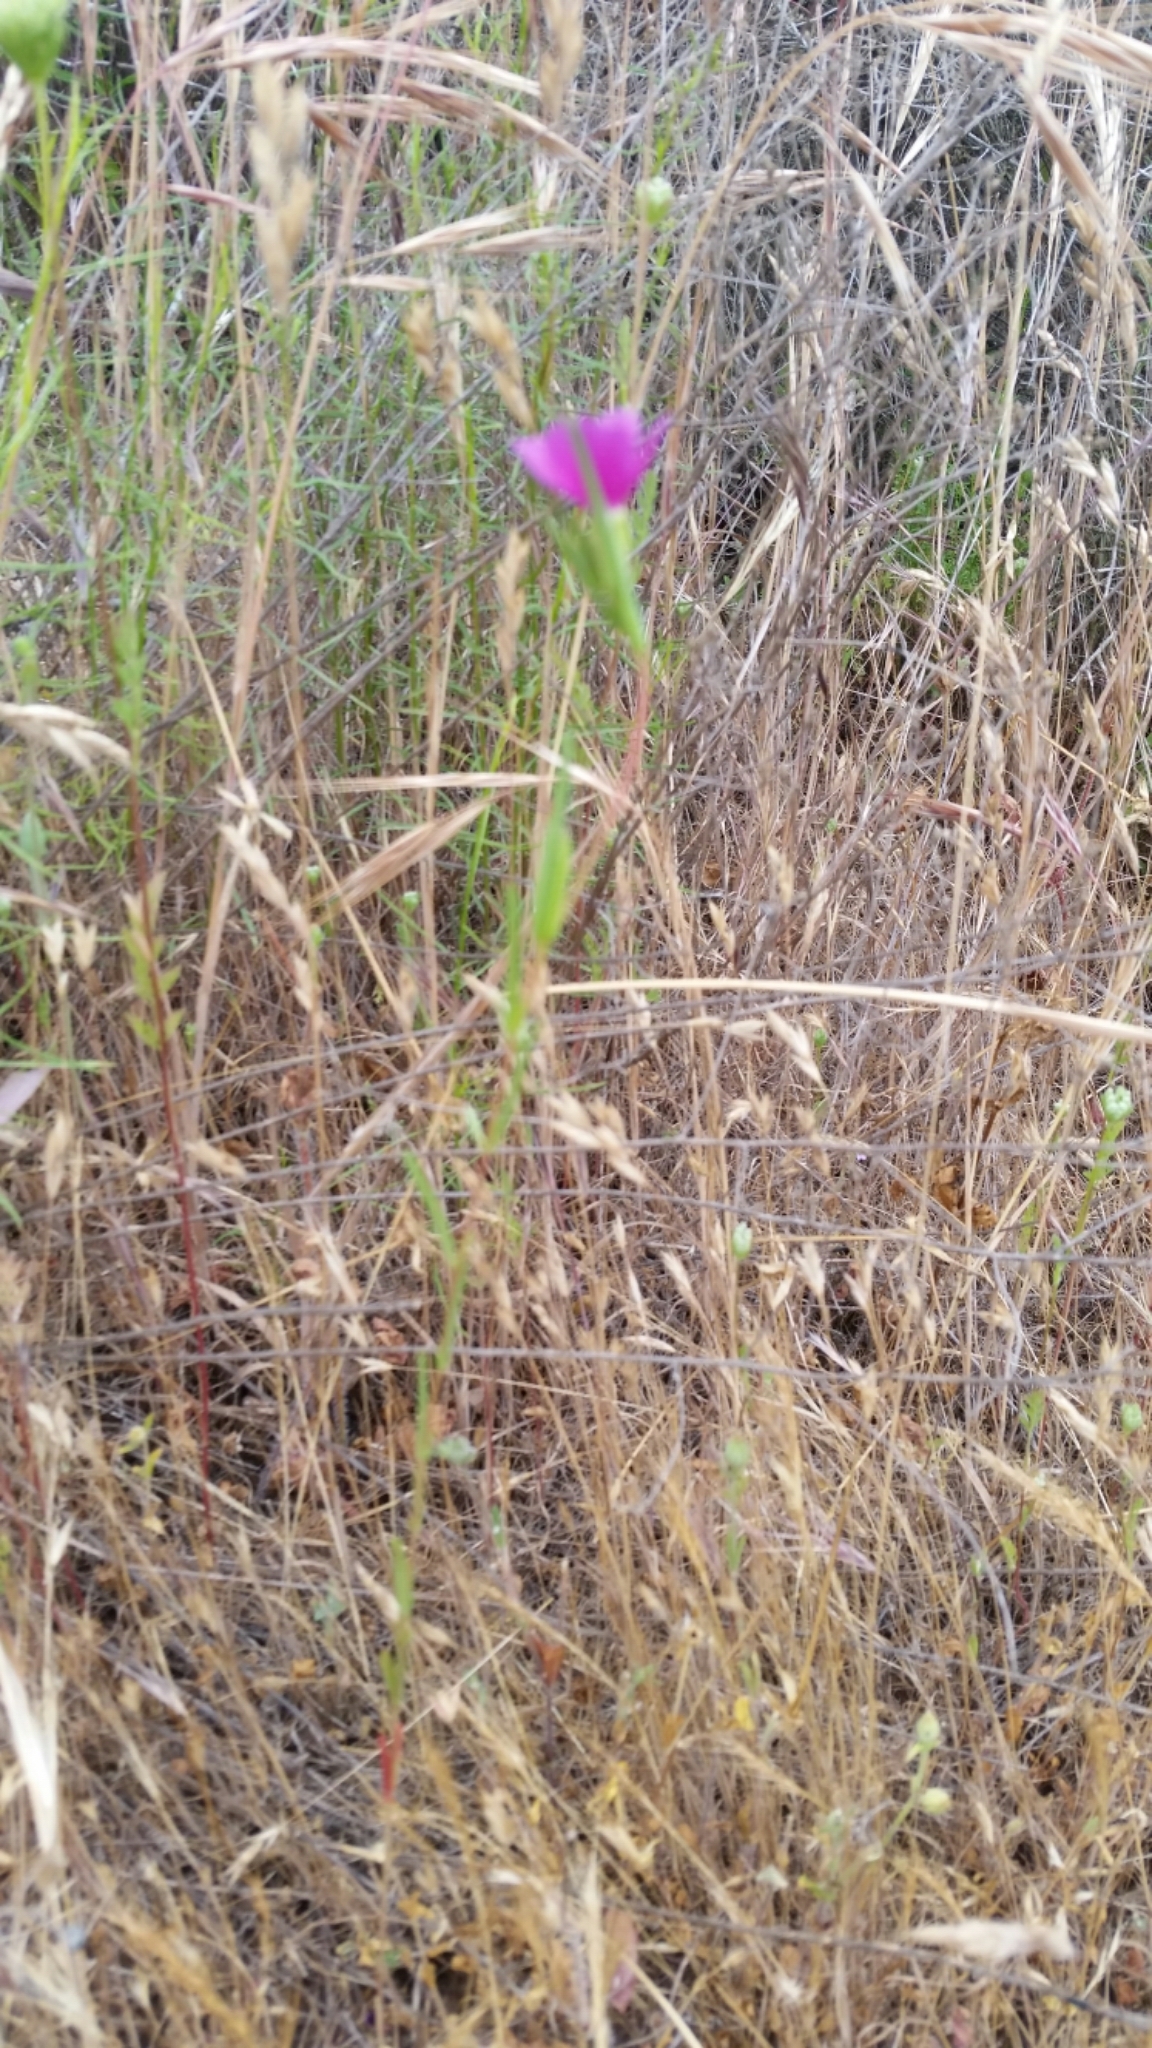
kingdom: Plantae
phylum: Tracheophyta
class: Magnoliopsida
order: Myrtales
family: Onagraceae
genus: Clarkia
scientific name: Clarkia purpurea
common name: Purple clarkia
